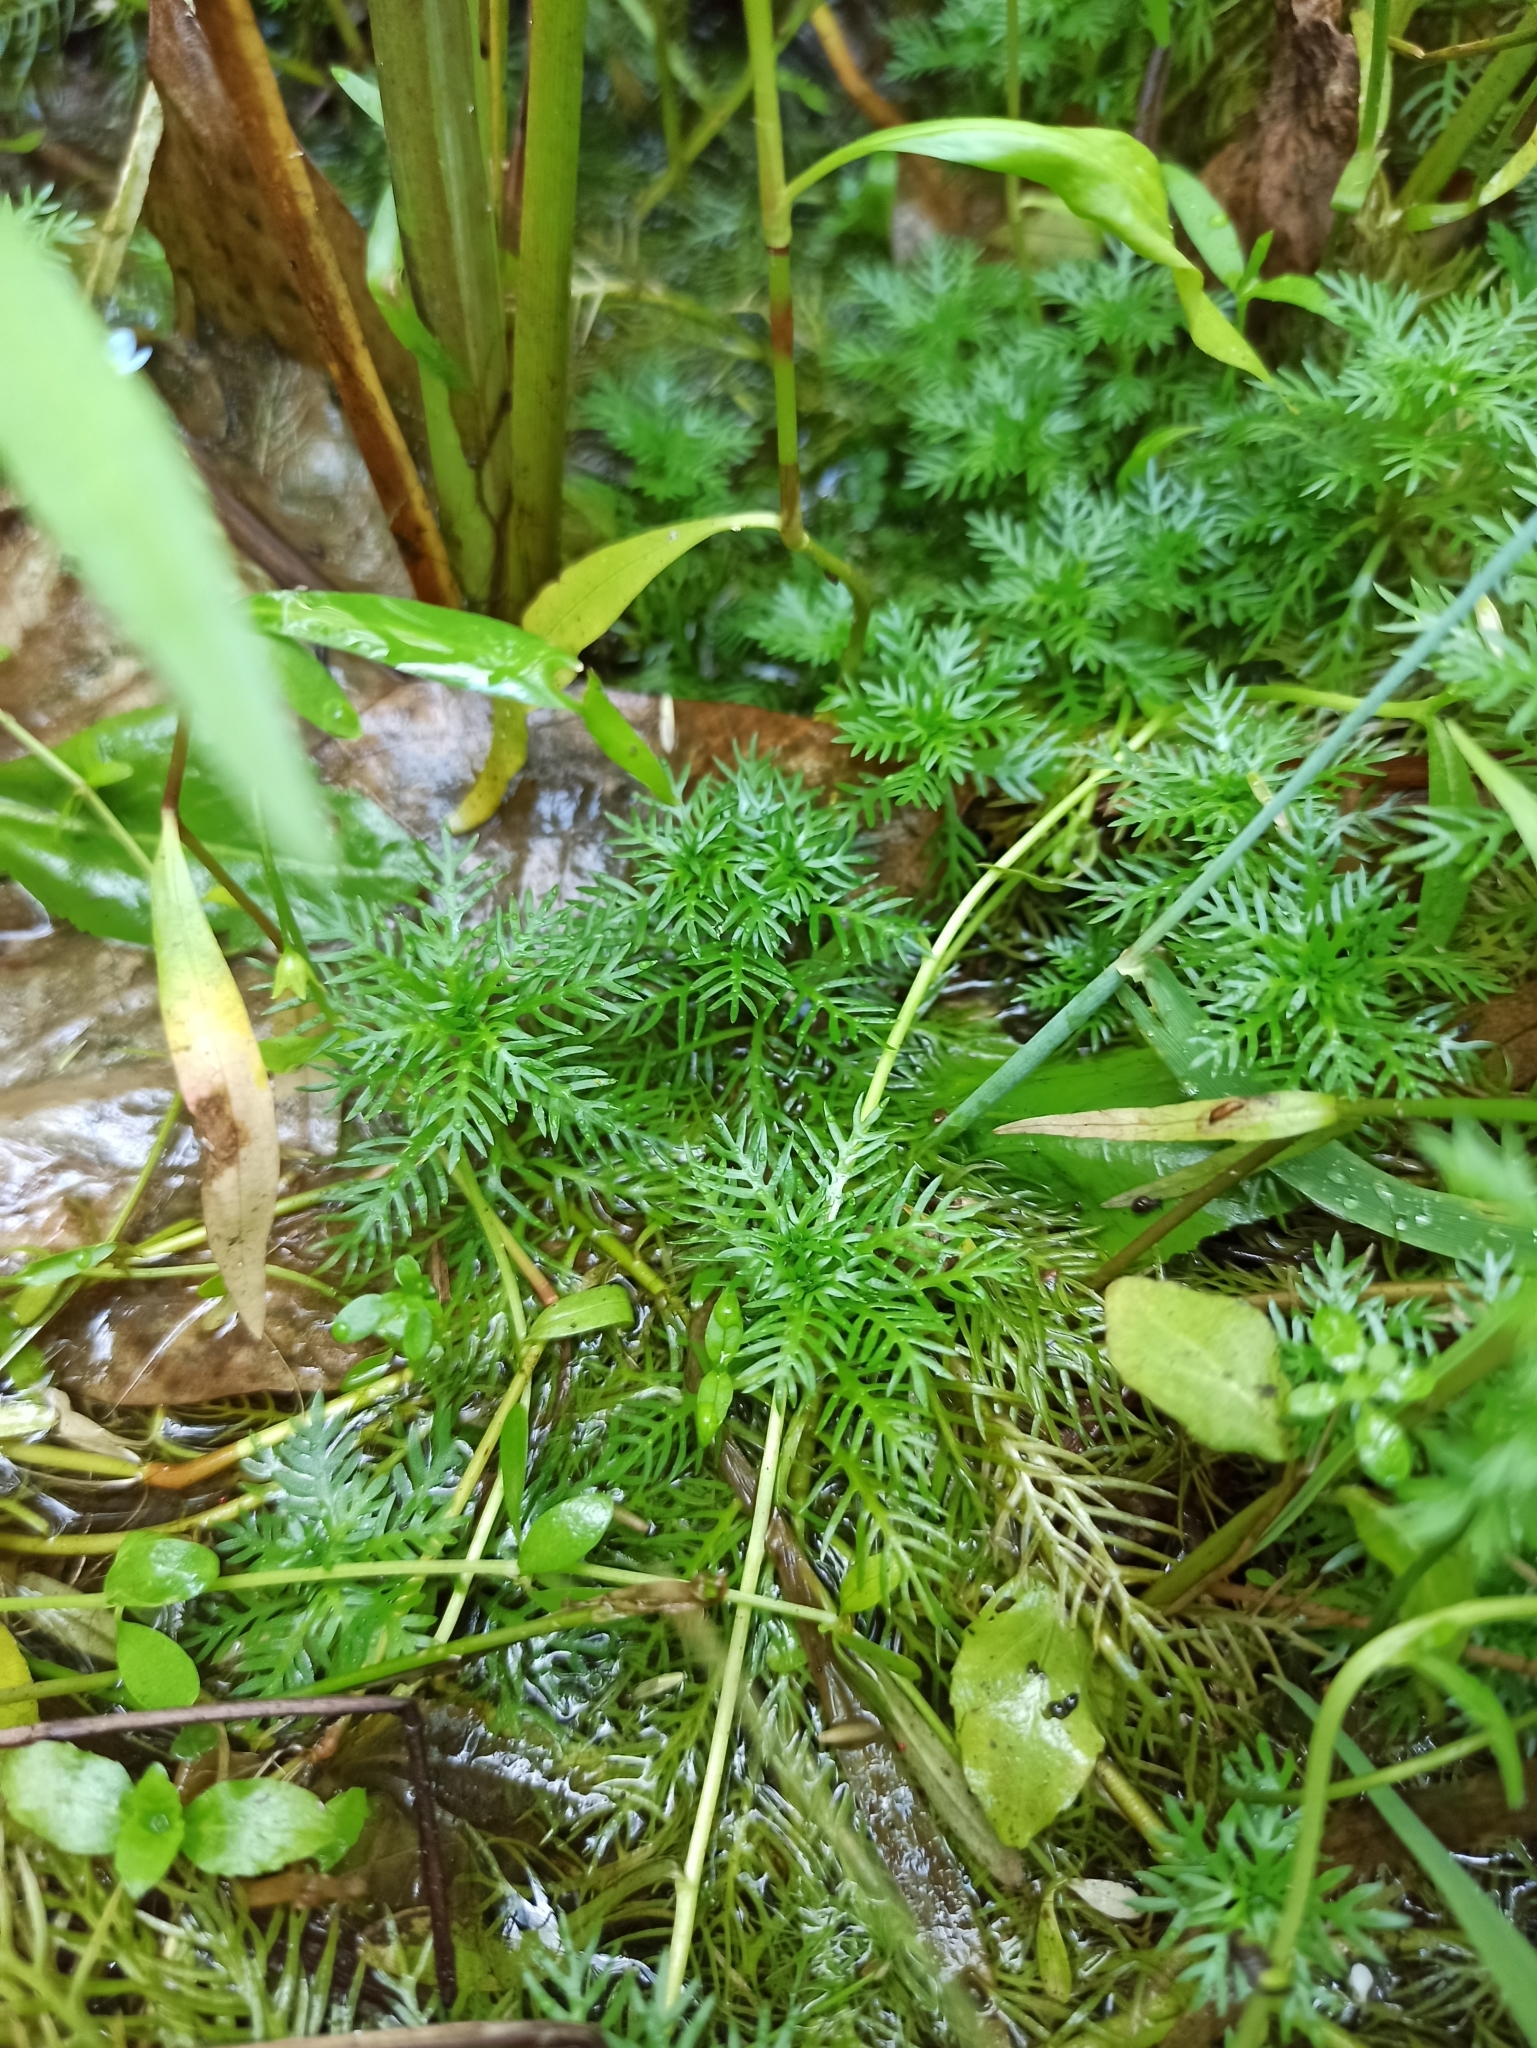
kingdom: Plantae
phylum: Tracheophyta
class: Magnoliopsida
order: Ericales
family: Primulaceae
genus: Hottonia
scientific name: Hottonia palustris
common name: Water-violet
